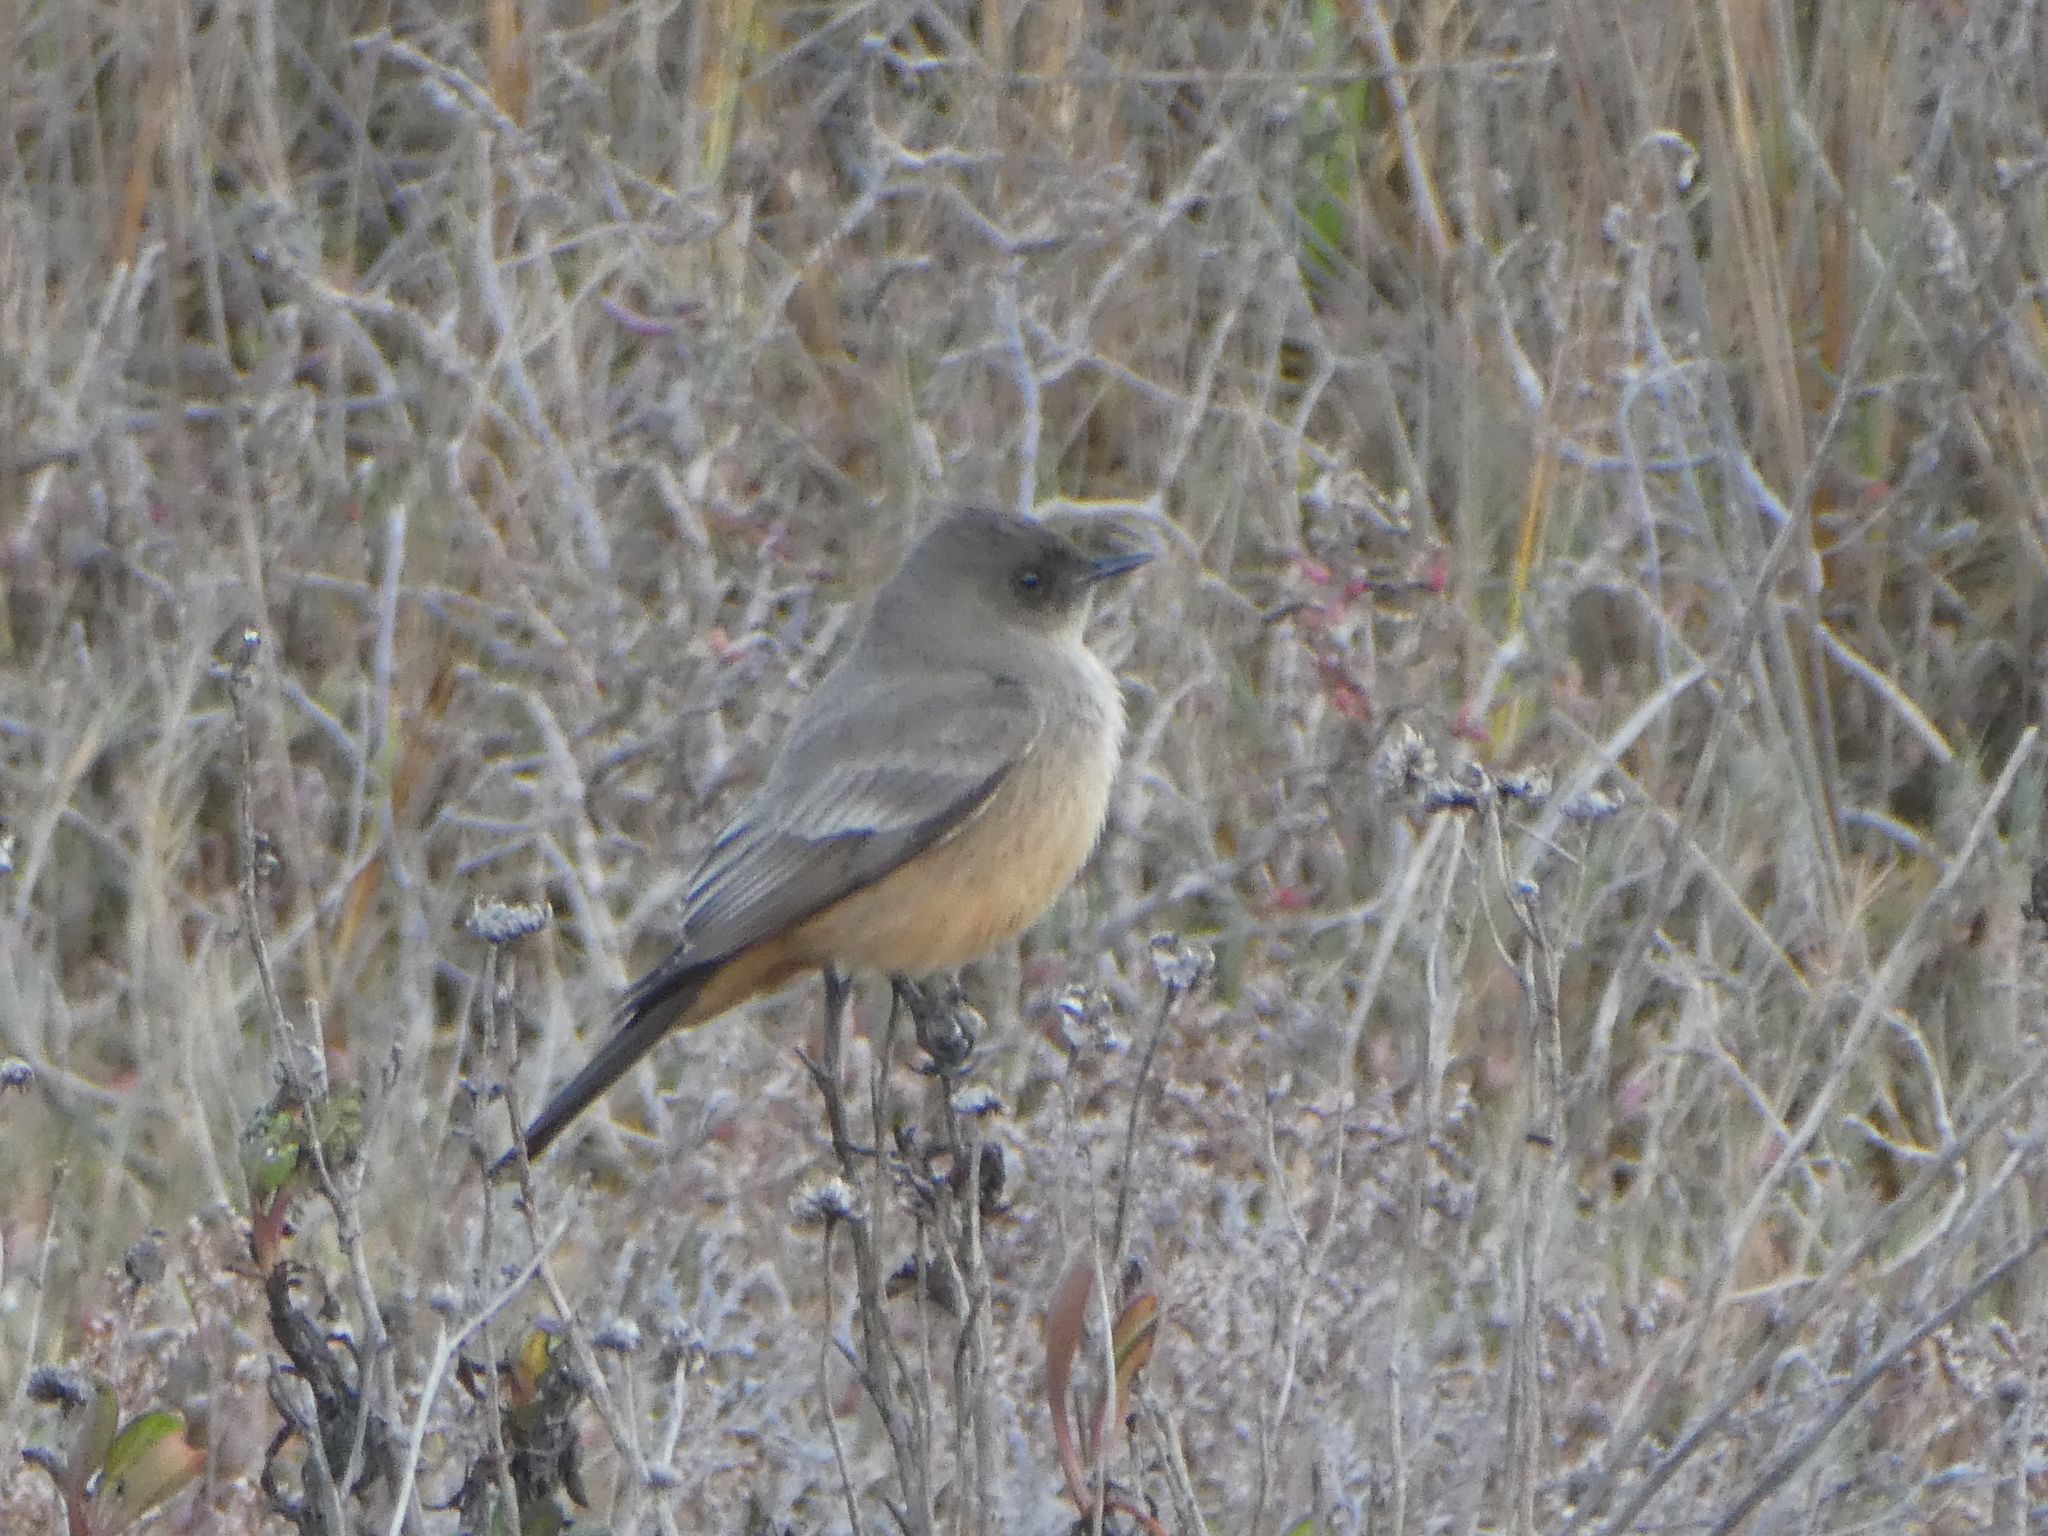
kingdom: Animalia
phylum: Chordata
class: Aves
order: Passeriformes
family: Tyrannidae
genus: Sayornis
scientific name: Sayornis saya
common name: Say's phoebe
